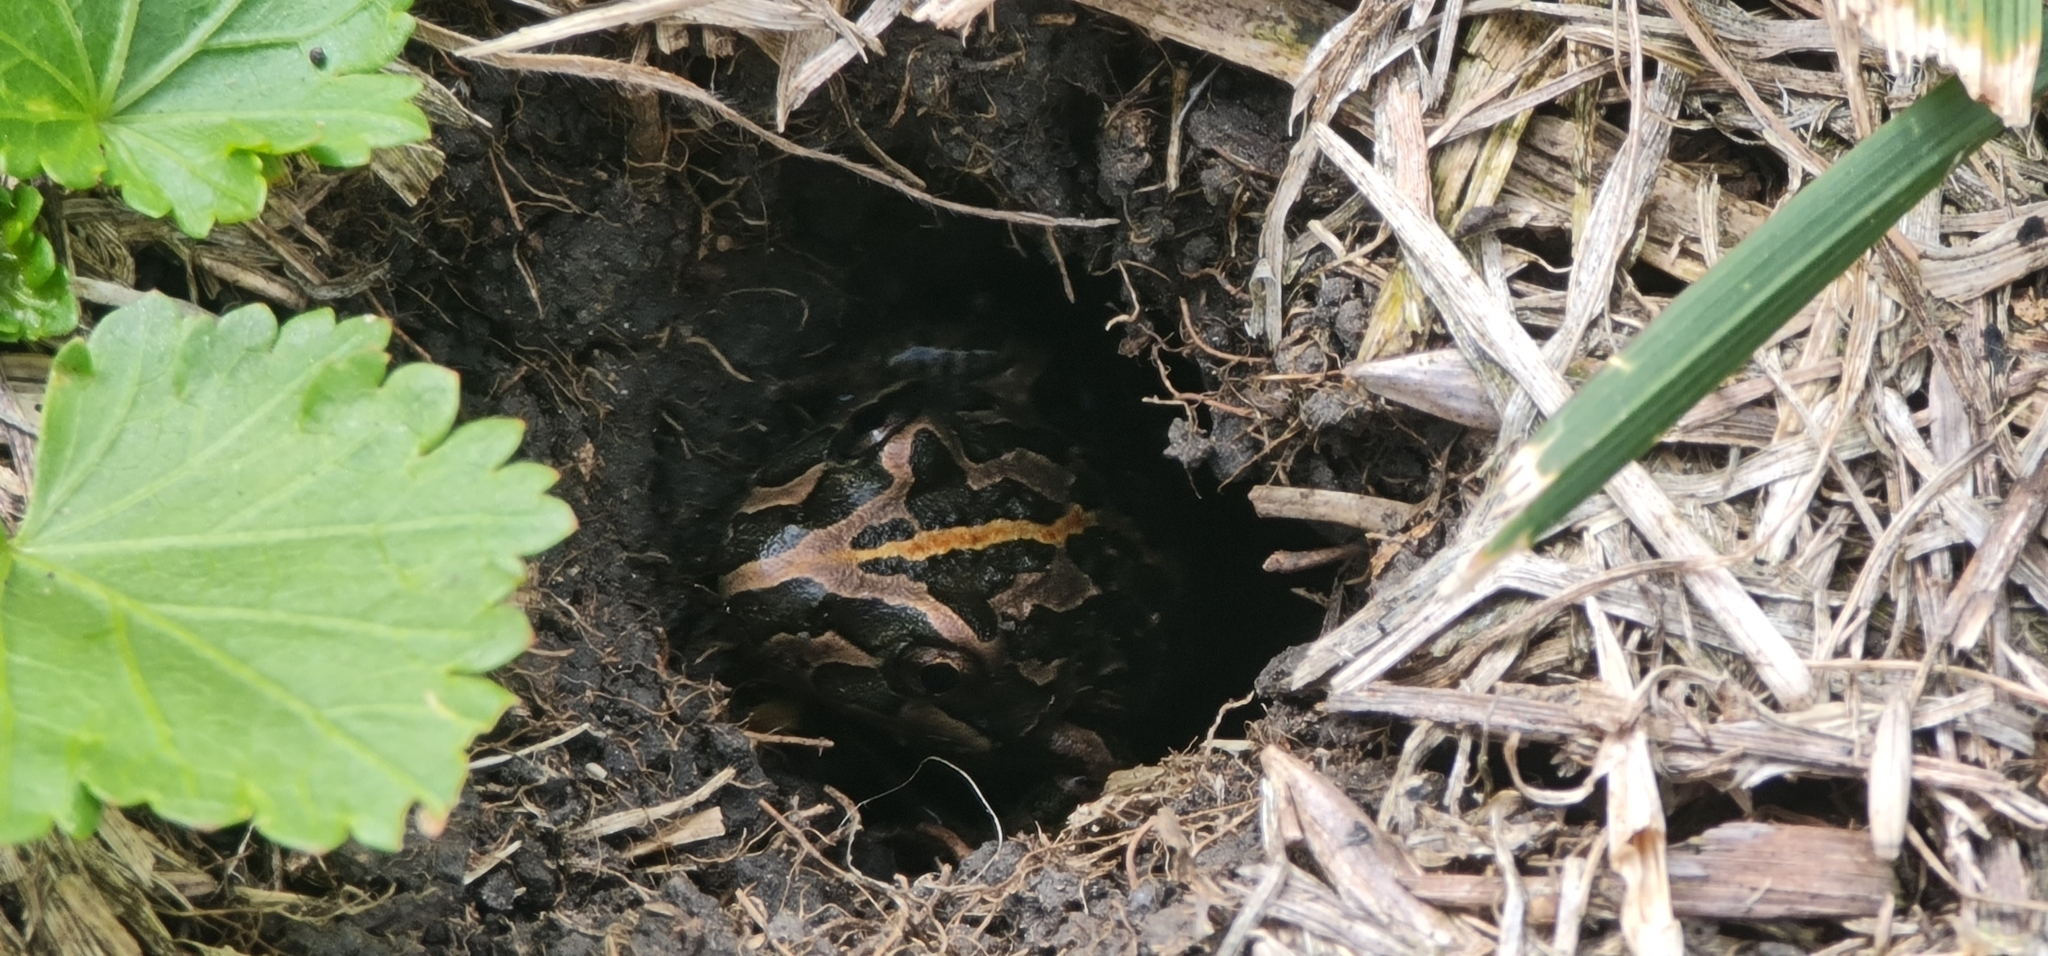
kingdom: Animalia
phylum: Chordata
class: Amphibia
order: Anura
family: Limnodynastidae
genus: Limnodynastes
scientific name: Limnodynastes peronii
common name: Brown frog
